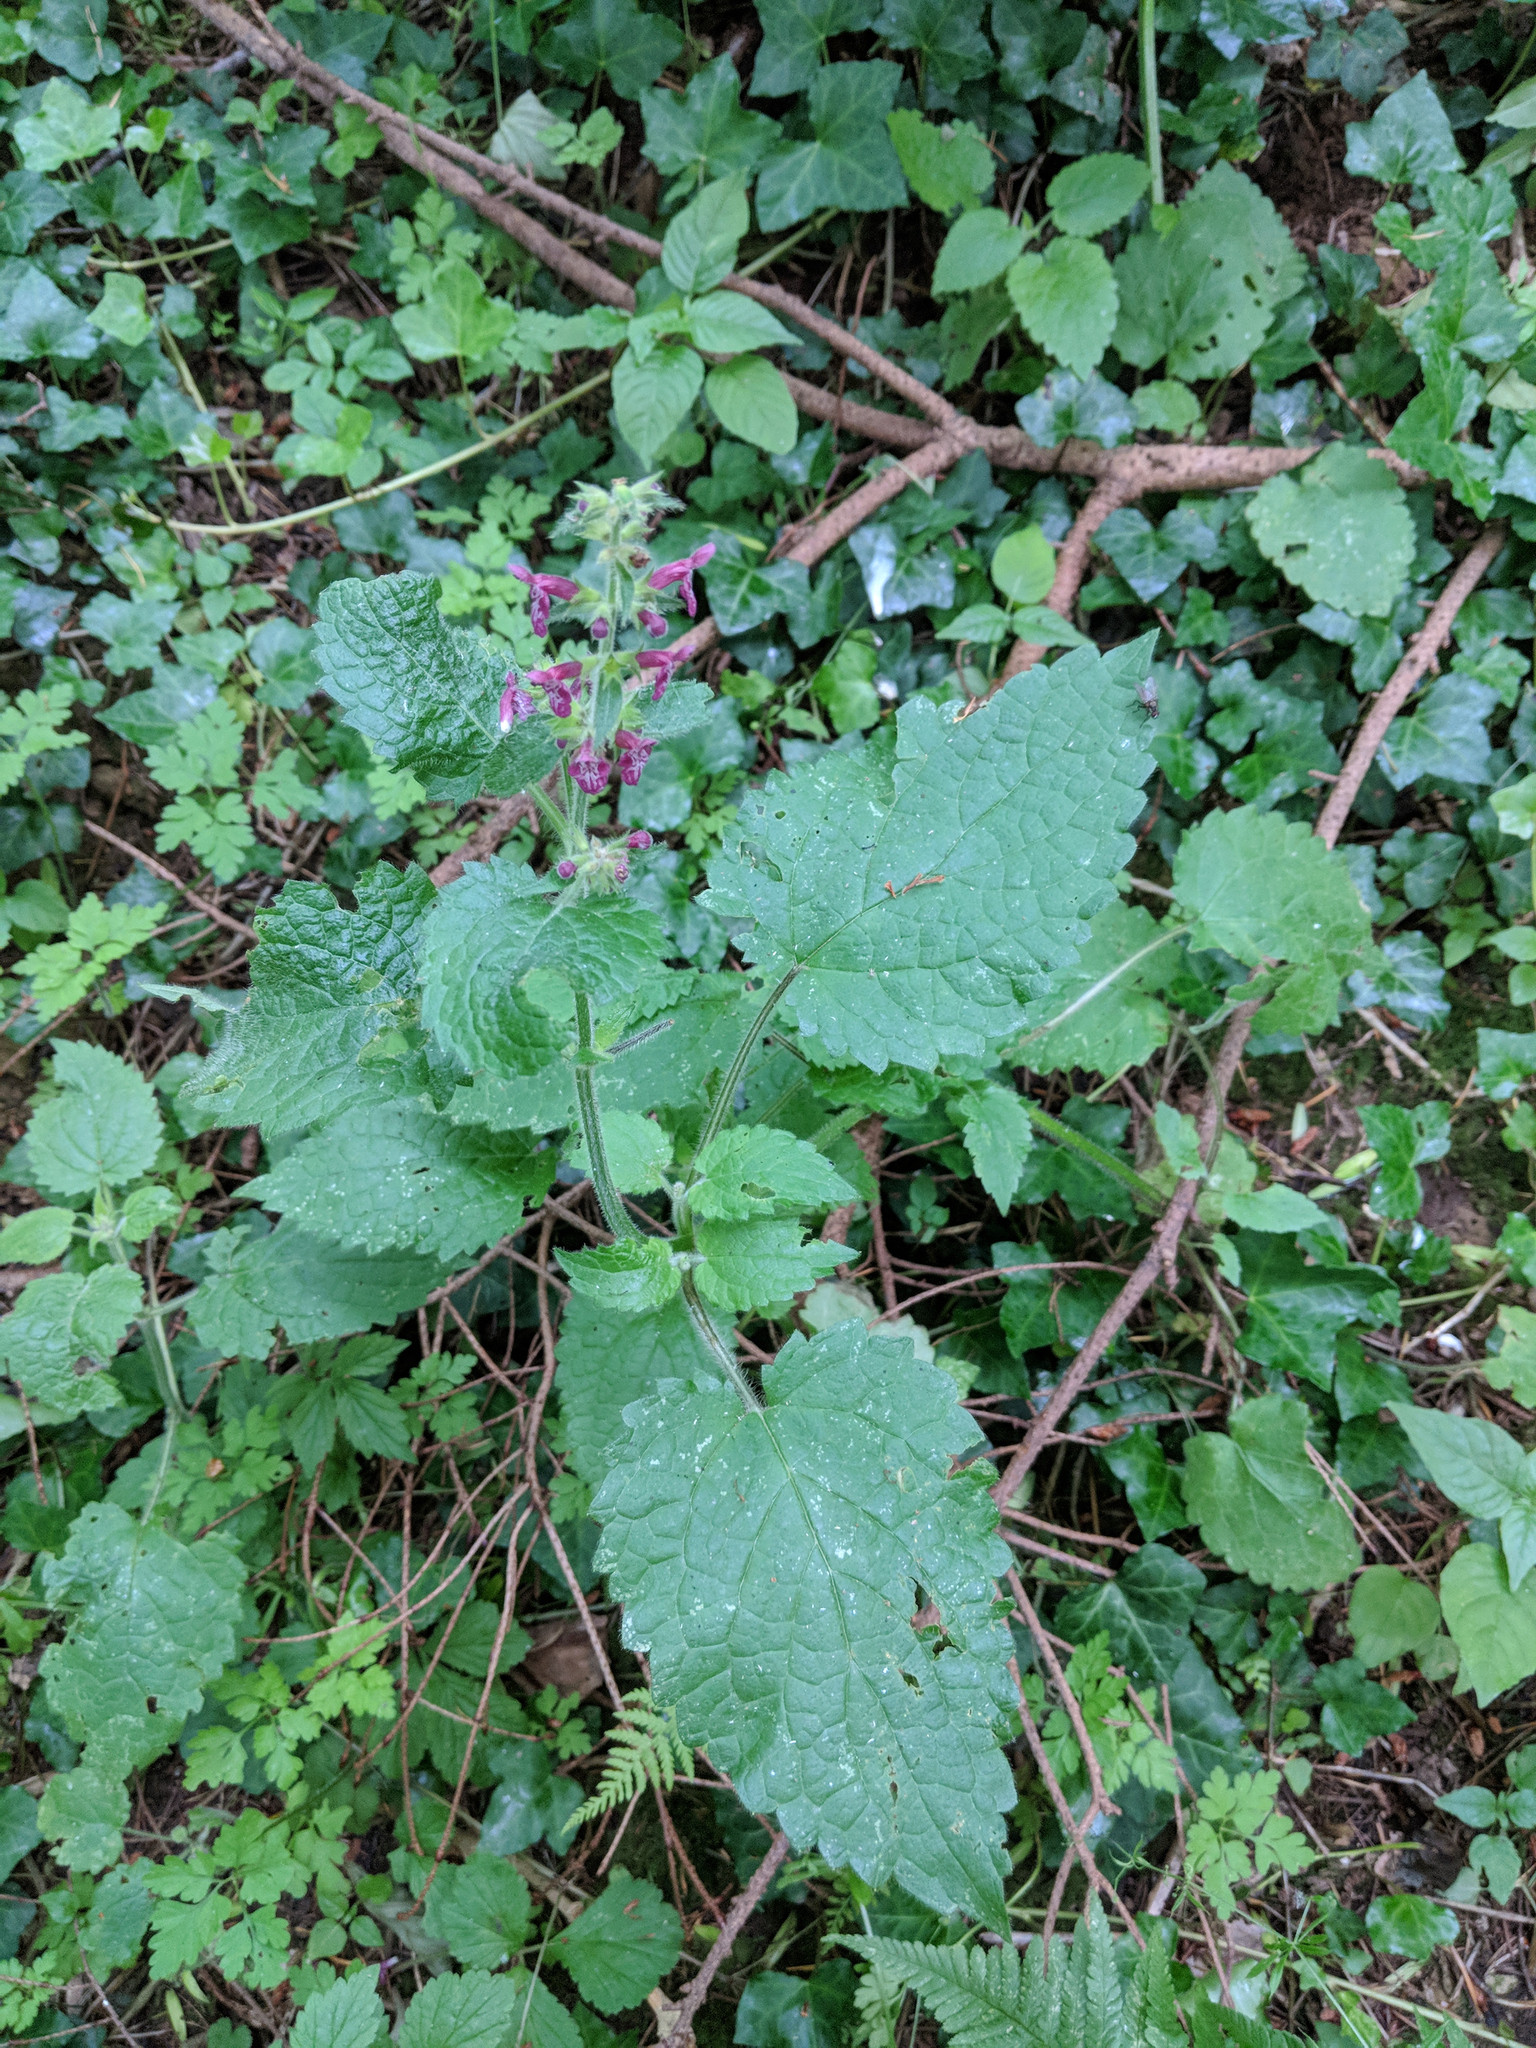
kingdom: Plantae
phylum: Tracheophyta
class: Magnoliopsida
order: Lamiales
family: Lamiaceae
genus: Stachys
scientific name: Stachys sylvatica
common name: Hedge woundwort
